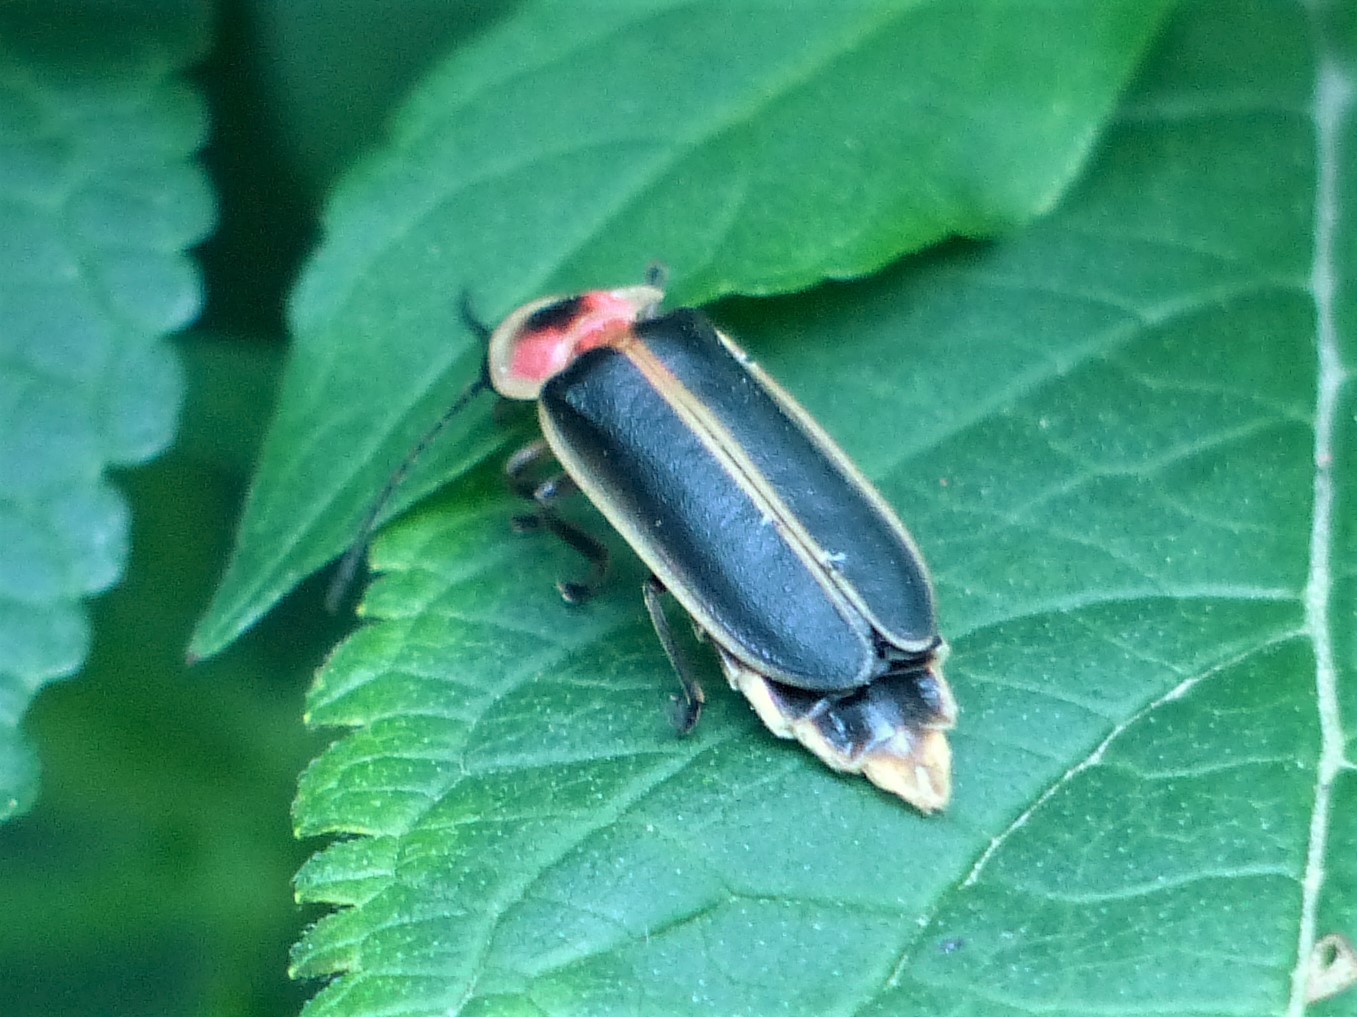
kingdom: Animalia
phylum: Arthropoda
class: Insecta
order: Coleoptera
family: Lampyridae
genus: Photinus
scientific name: Photinus pyralis
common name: Big dipper firefly
